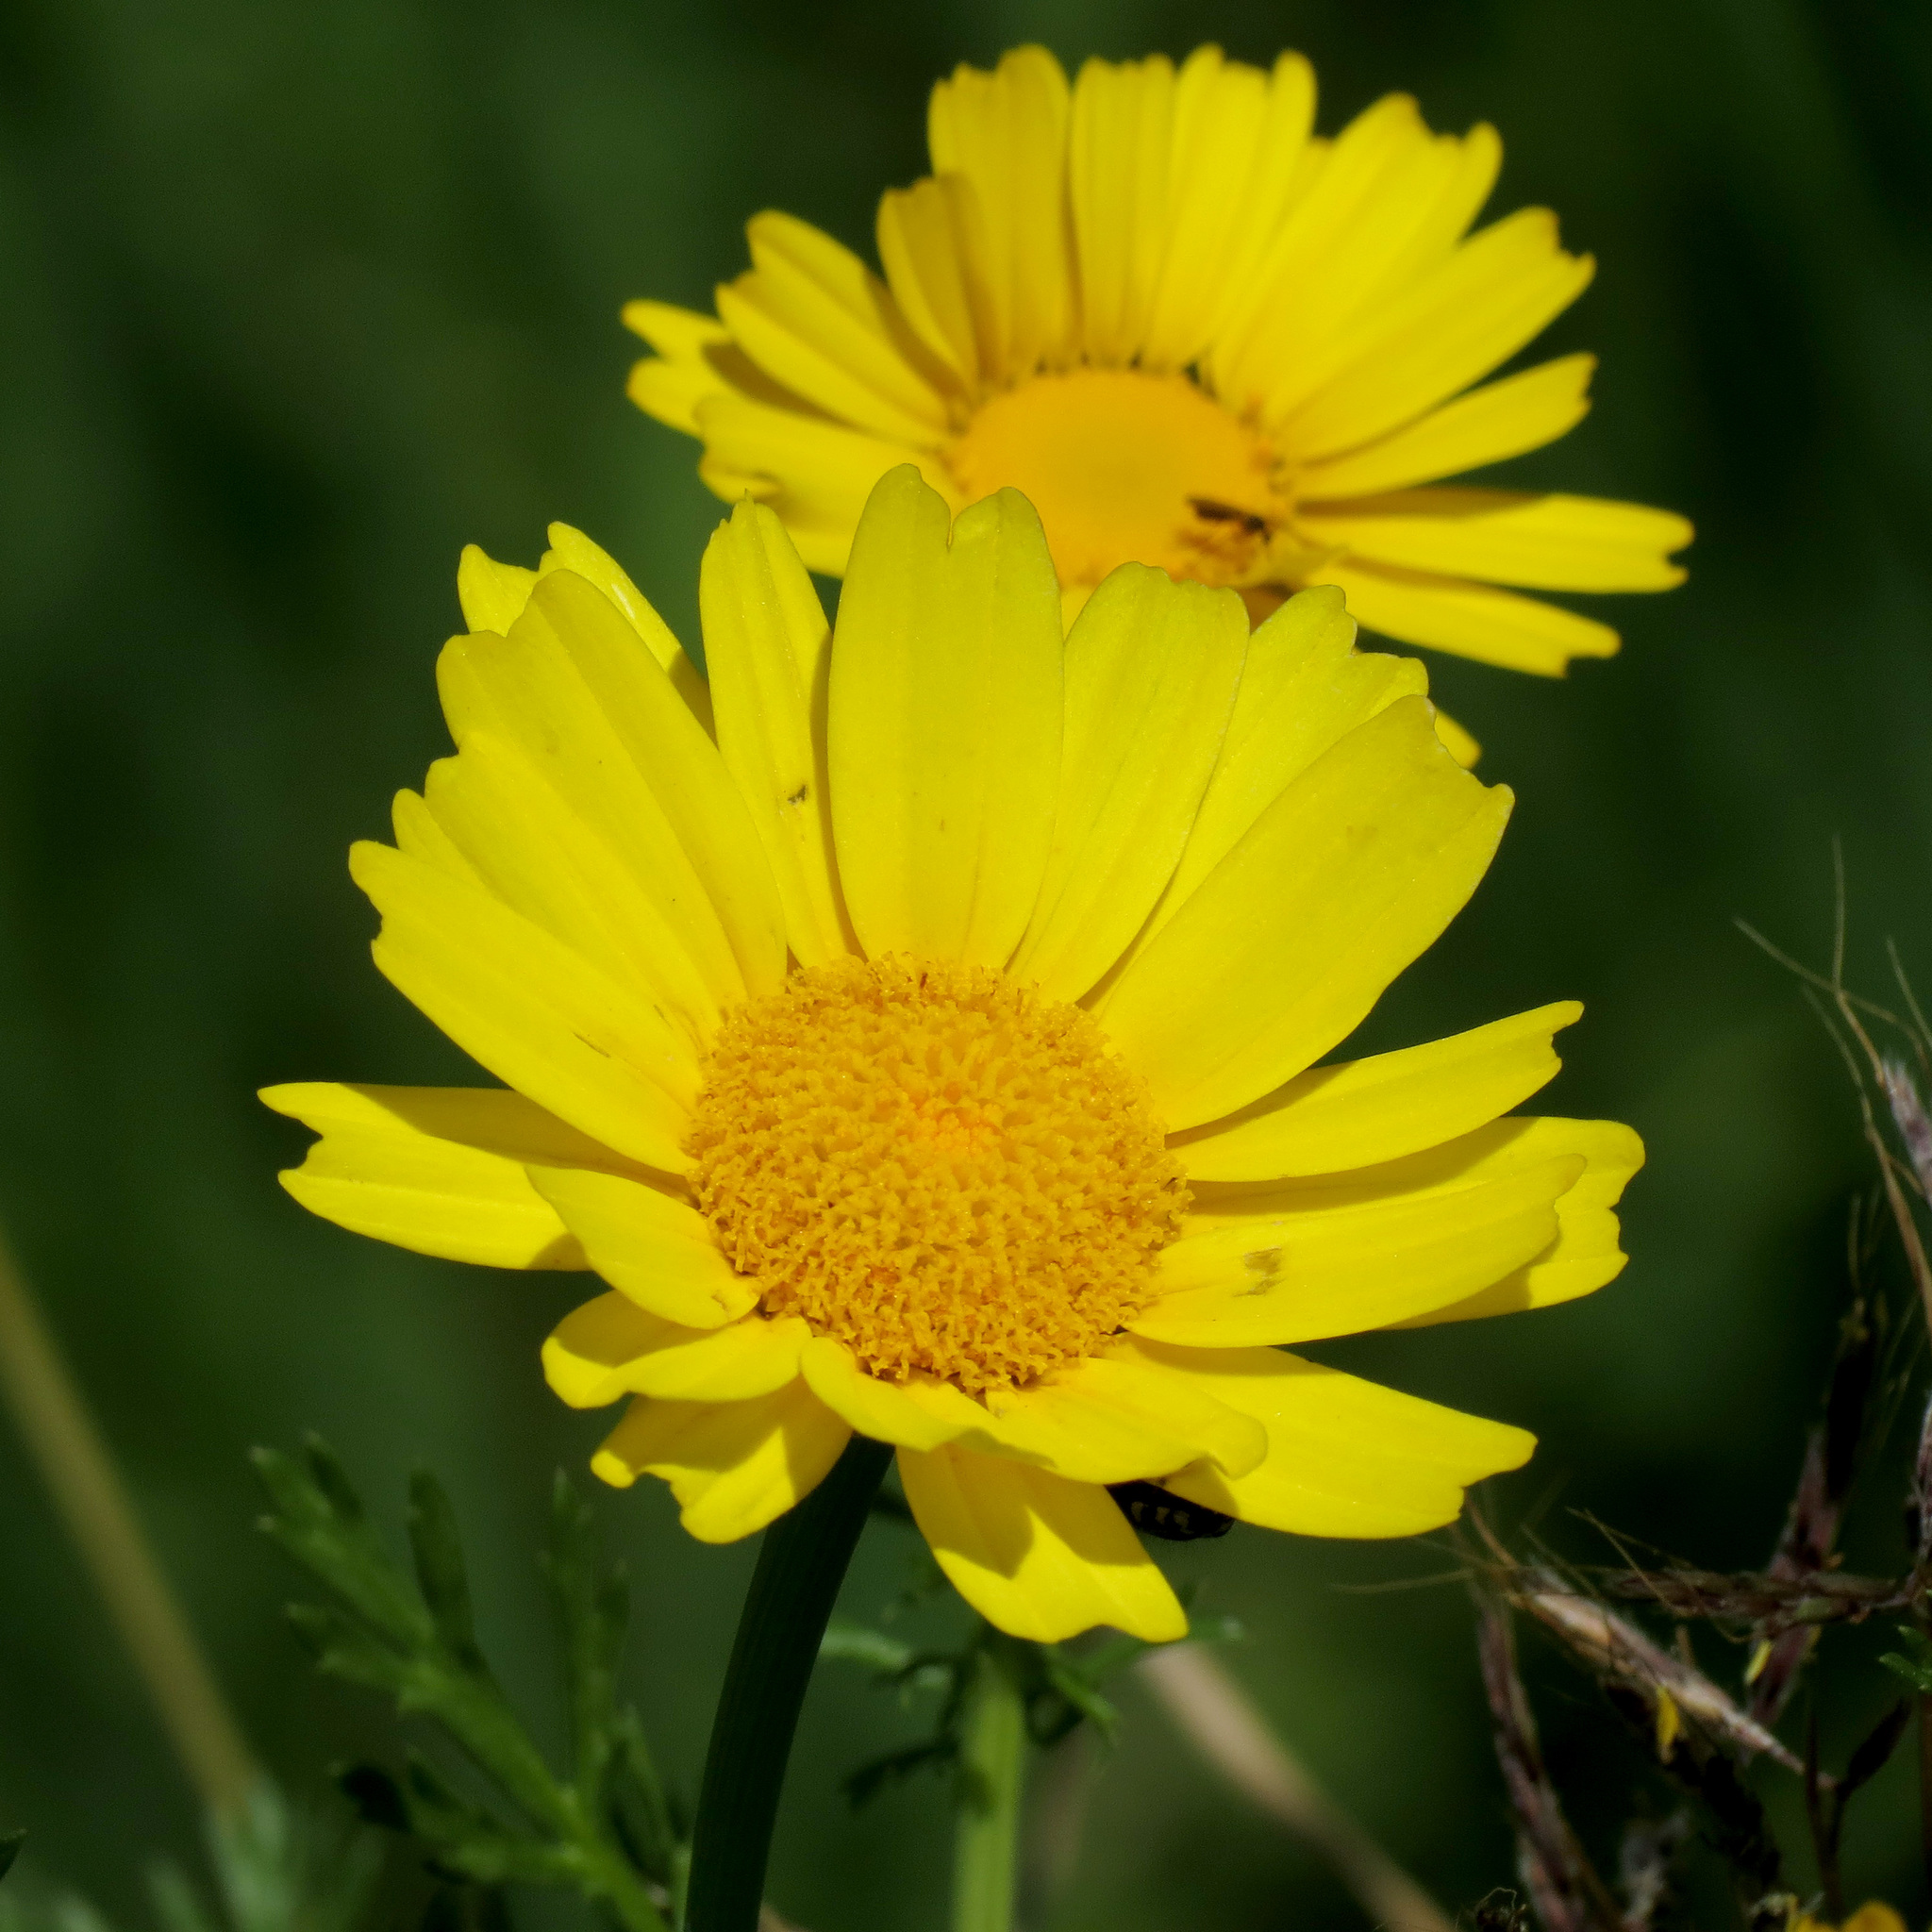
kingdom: Plantae
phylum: Tracheophyta
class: Magnoliopsida
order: Asterales
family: Asteraceae
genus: Glebionis
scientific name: Glebionis coronaria
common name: Crowndaisy
